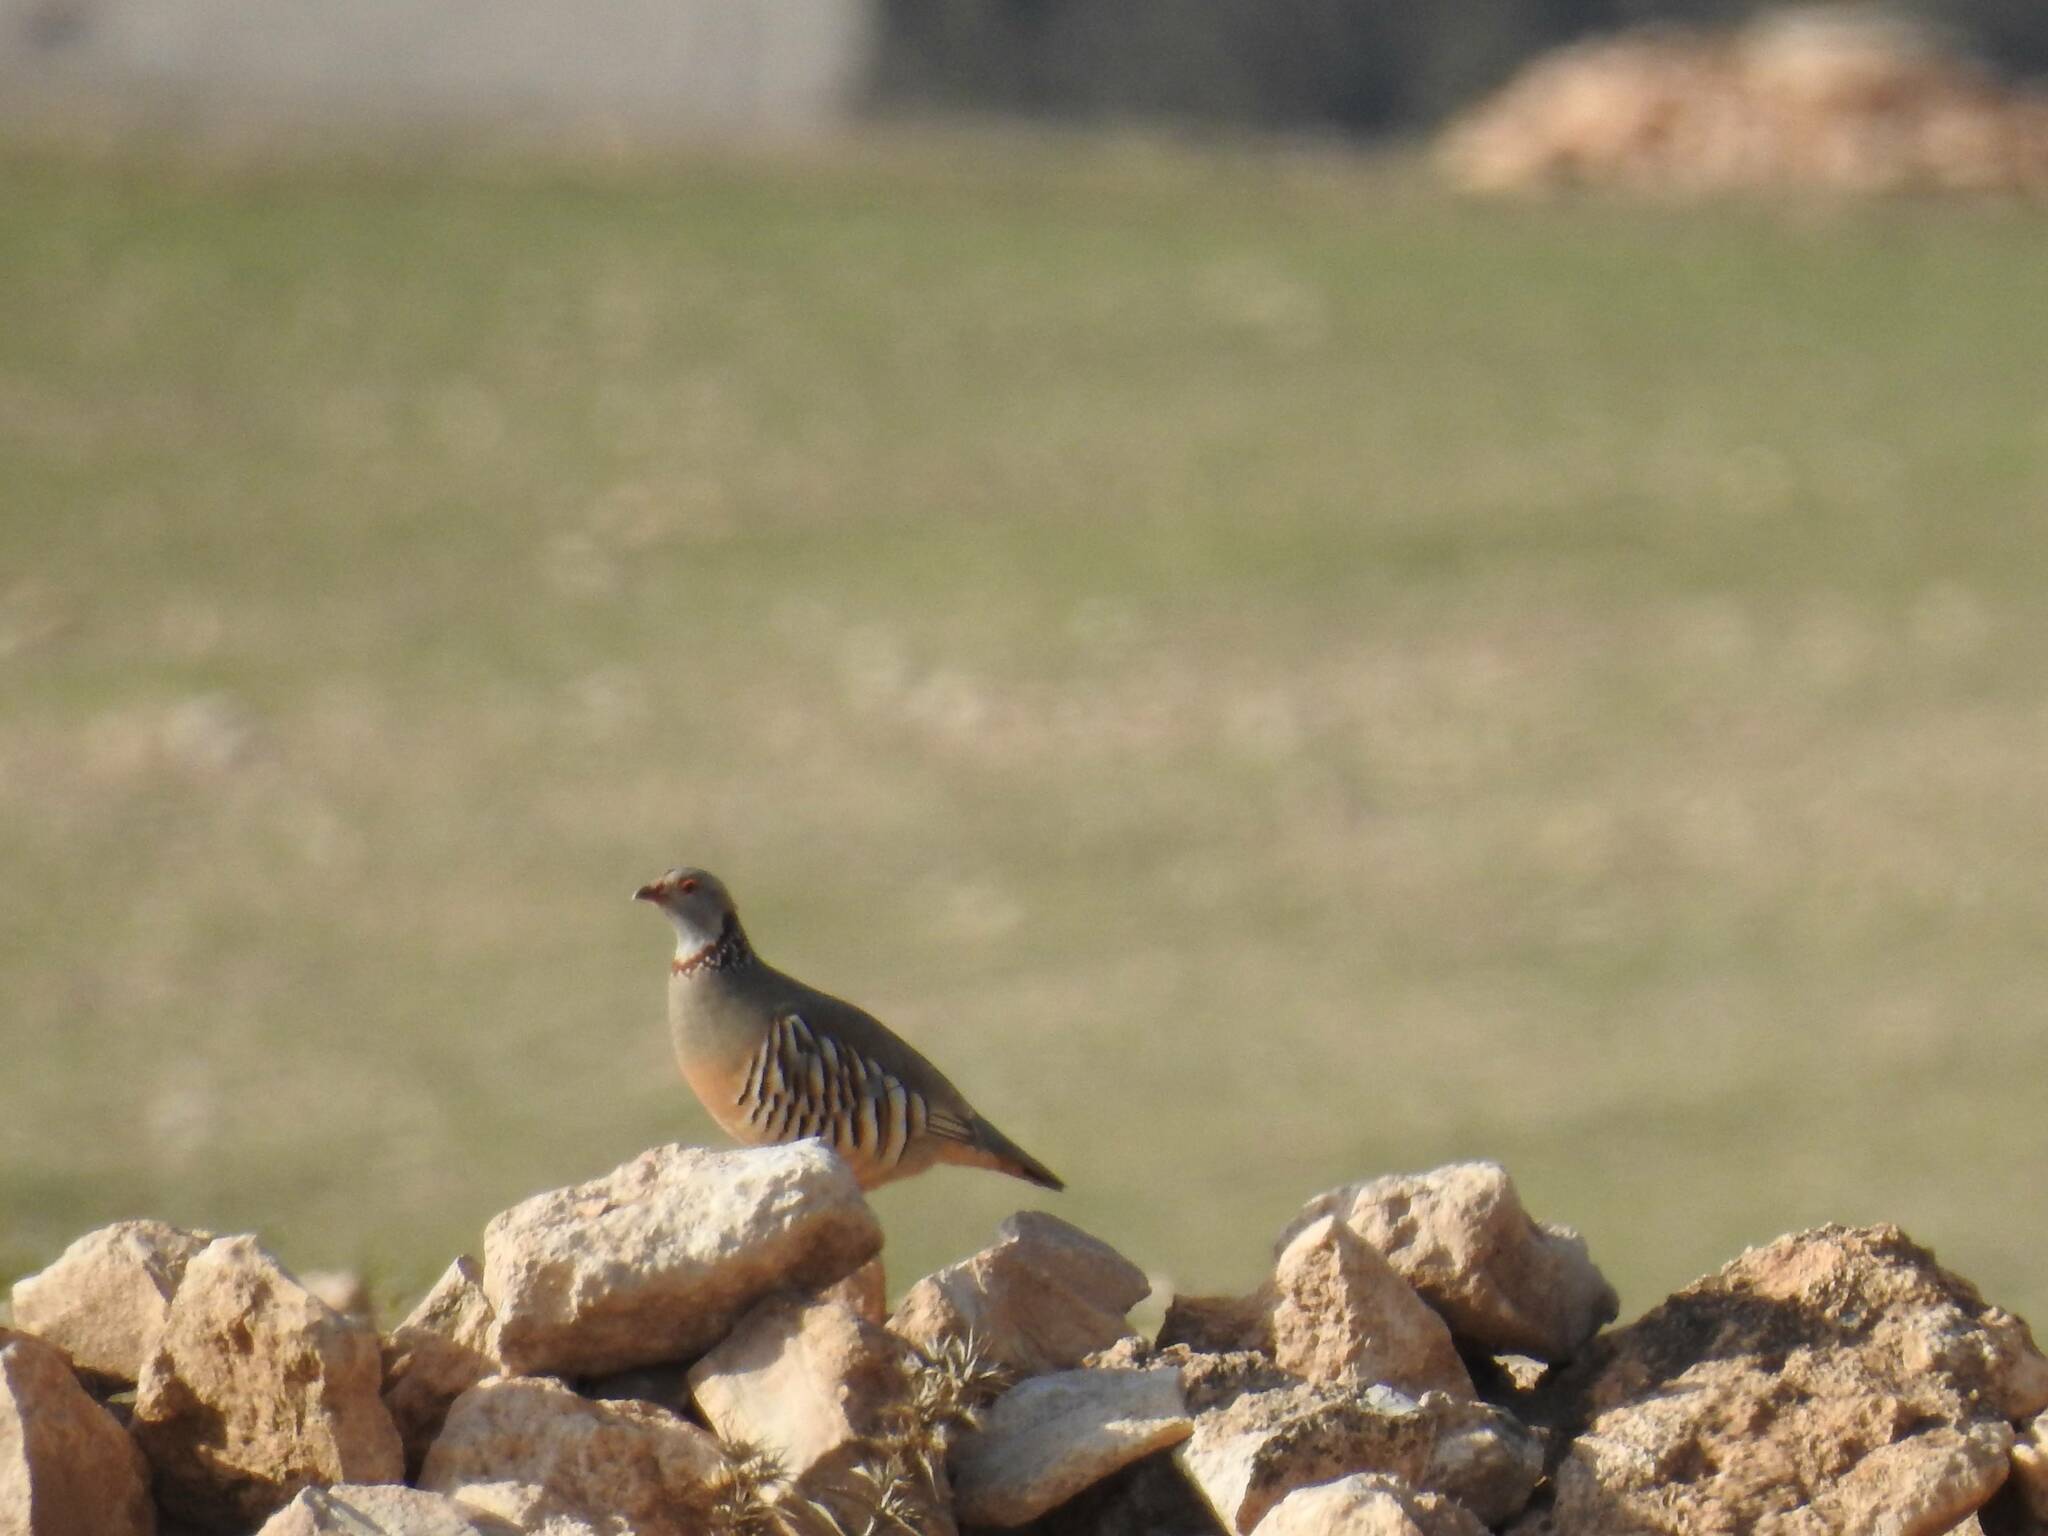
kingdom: Animalia
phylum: Chordata
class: Aves
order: Galliformes
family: Phasianidae
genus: Alectoris
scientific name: Alectoris barbara
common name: Barbary partridge
